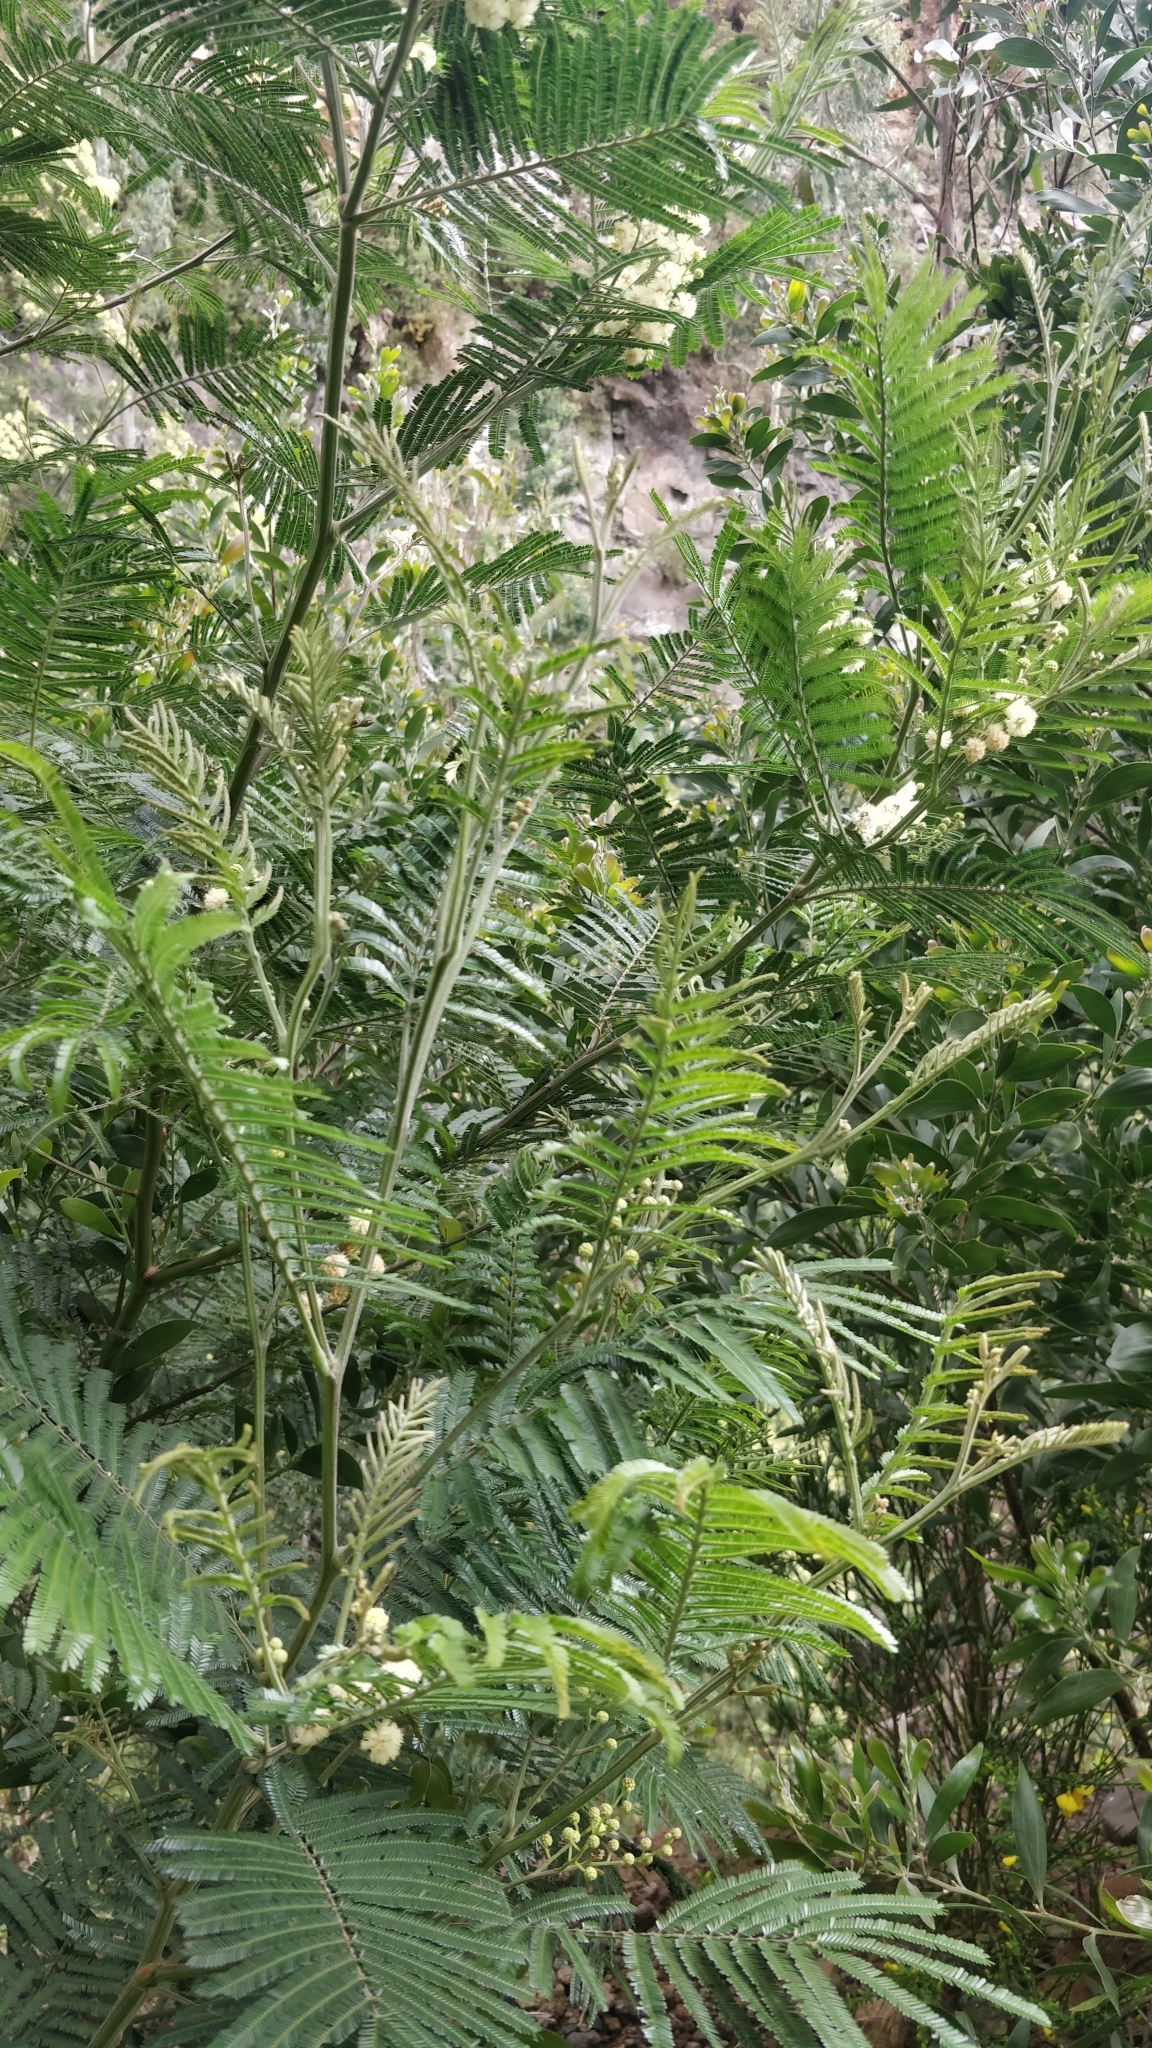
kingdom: Plantae
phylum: Tracheophyta
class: Magnoliopsida
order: Fabales
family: Fabaceae
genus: Acacia
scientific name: Acacia mearnsii
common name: Black wattle
